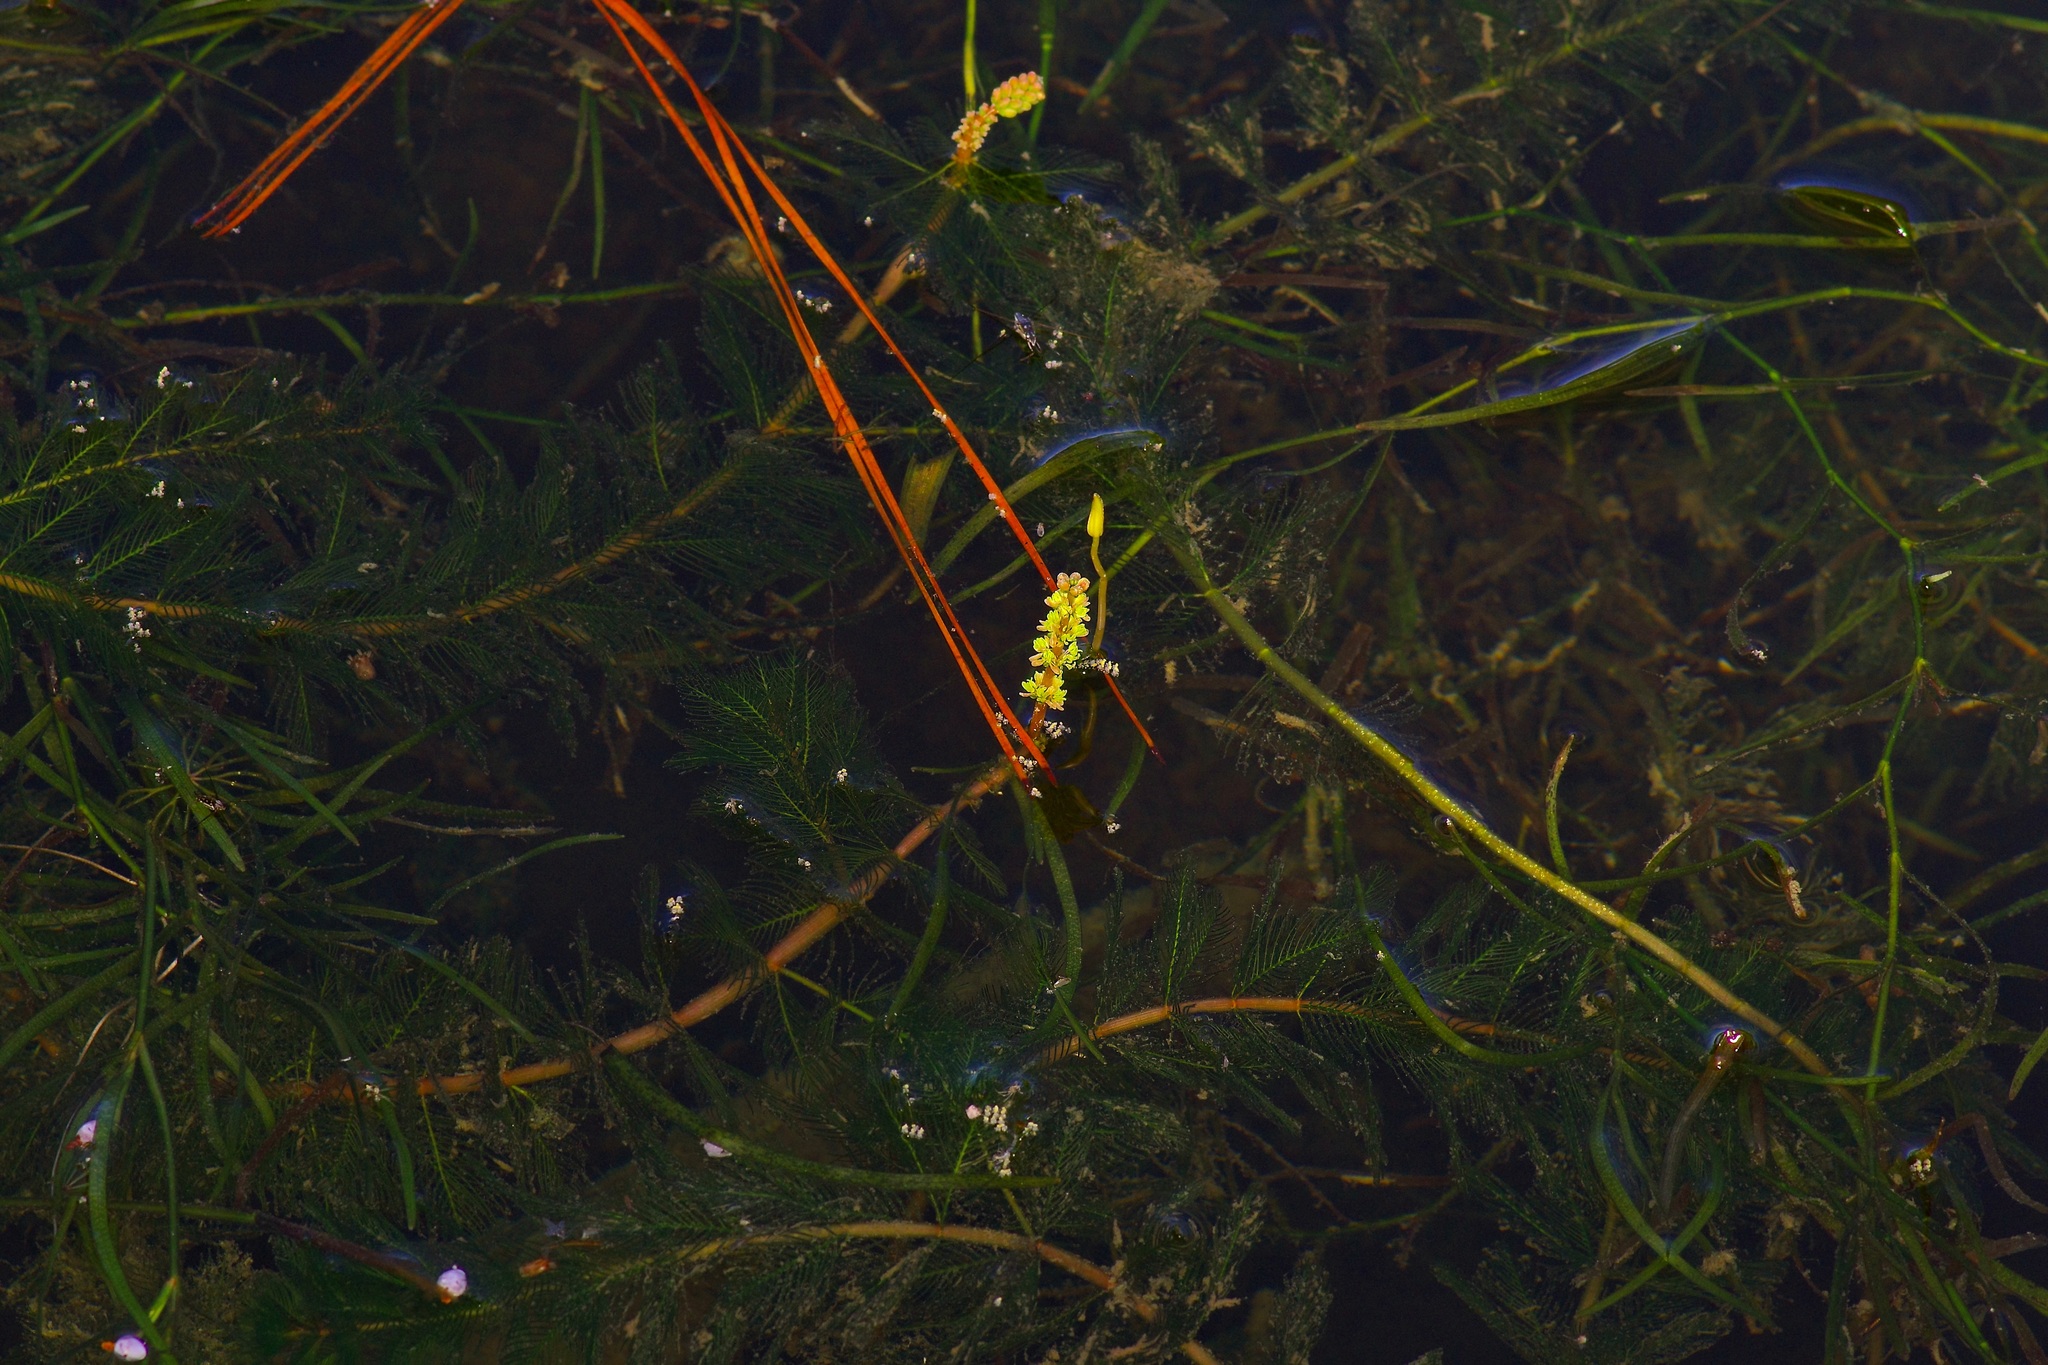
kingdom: Plantae
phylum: Tracheophyta
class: Magnoliopsida
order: Saxifragales
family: Haloragaceae
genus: Myriophyllum
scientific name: Myriophyllum spicatum
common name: Spiked water-milfoil
